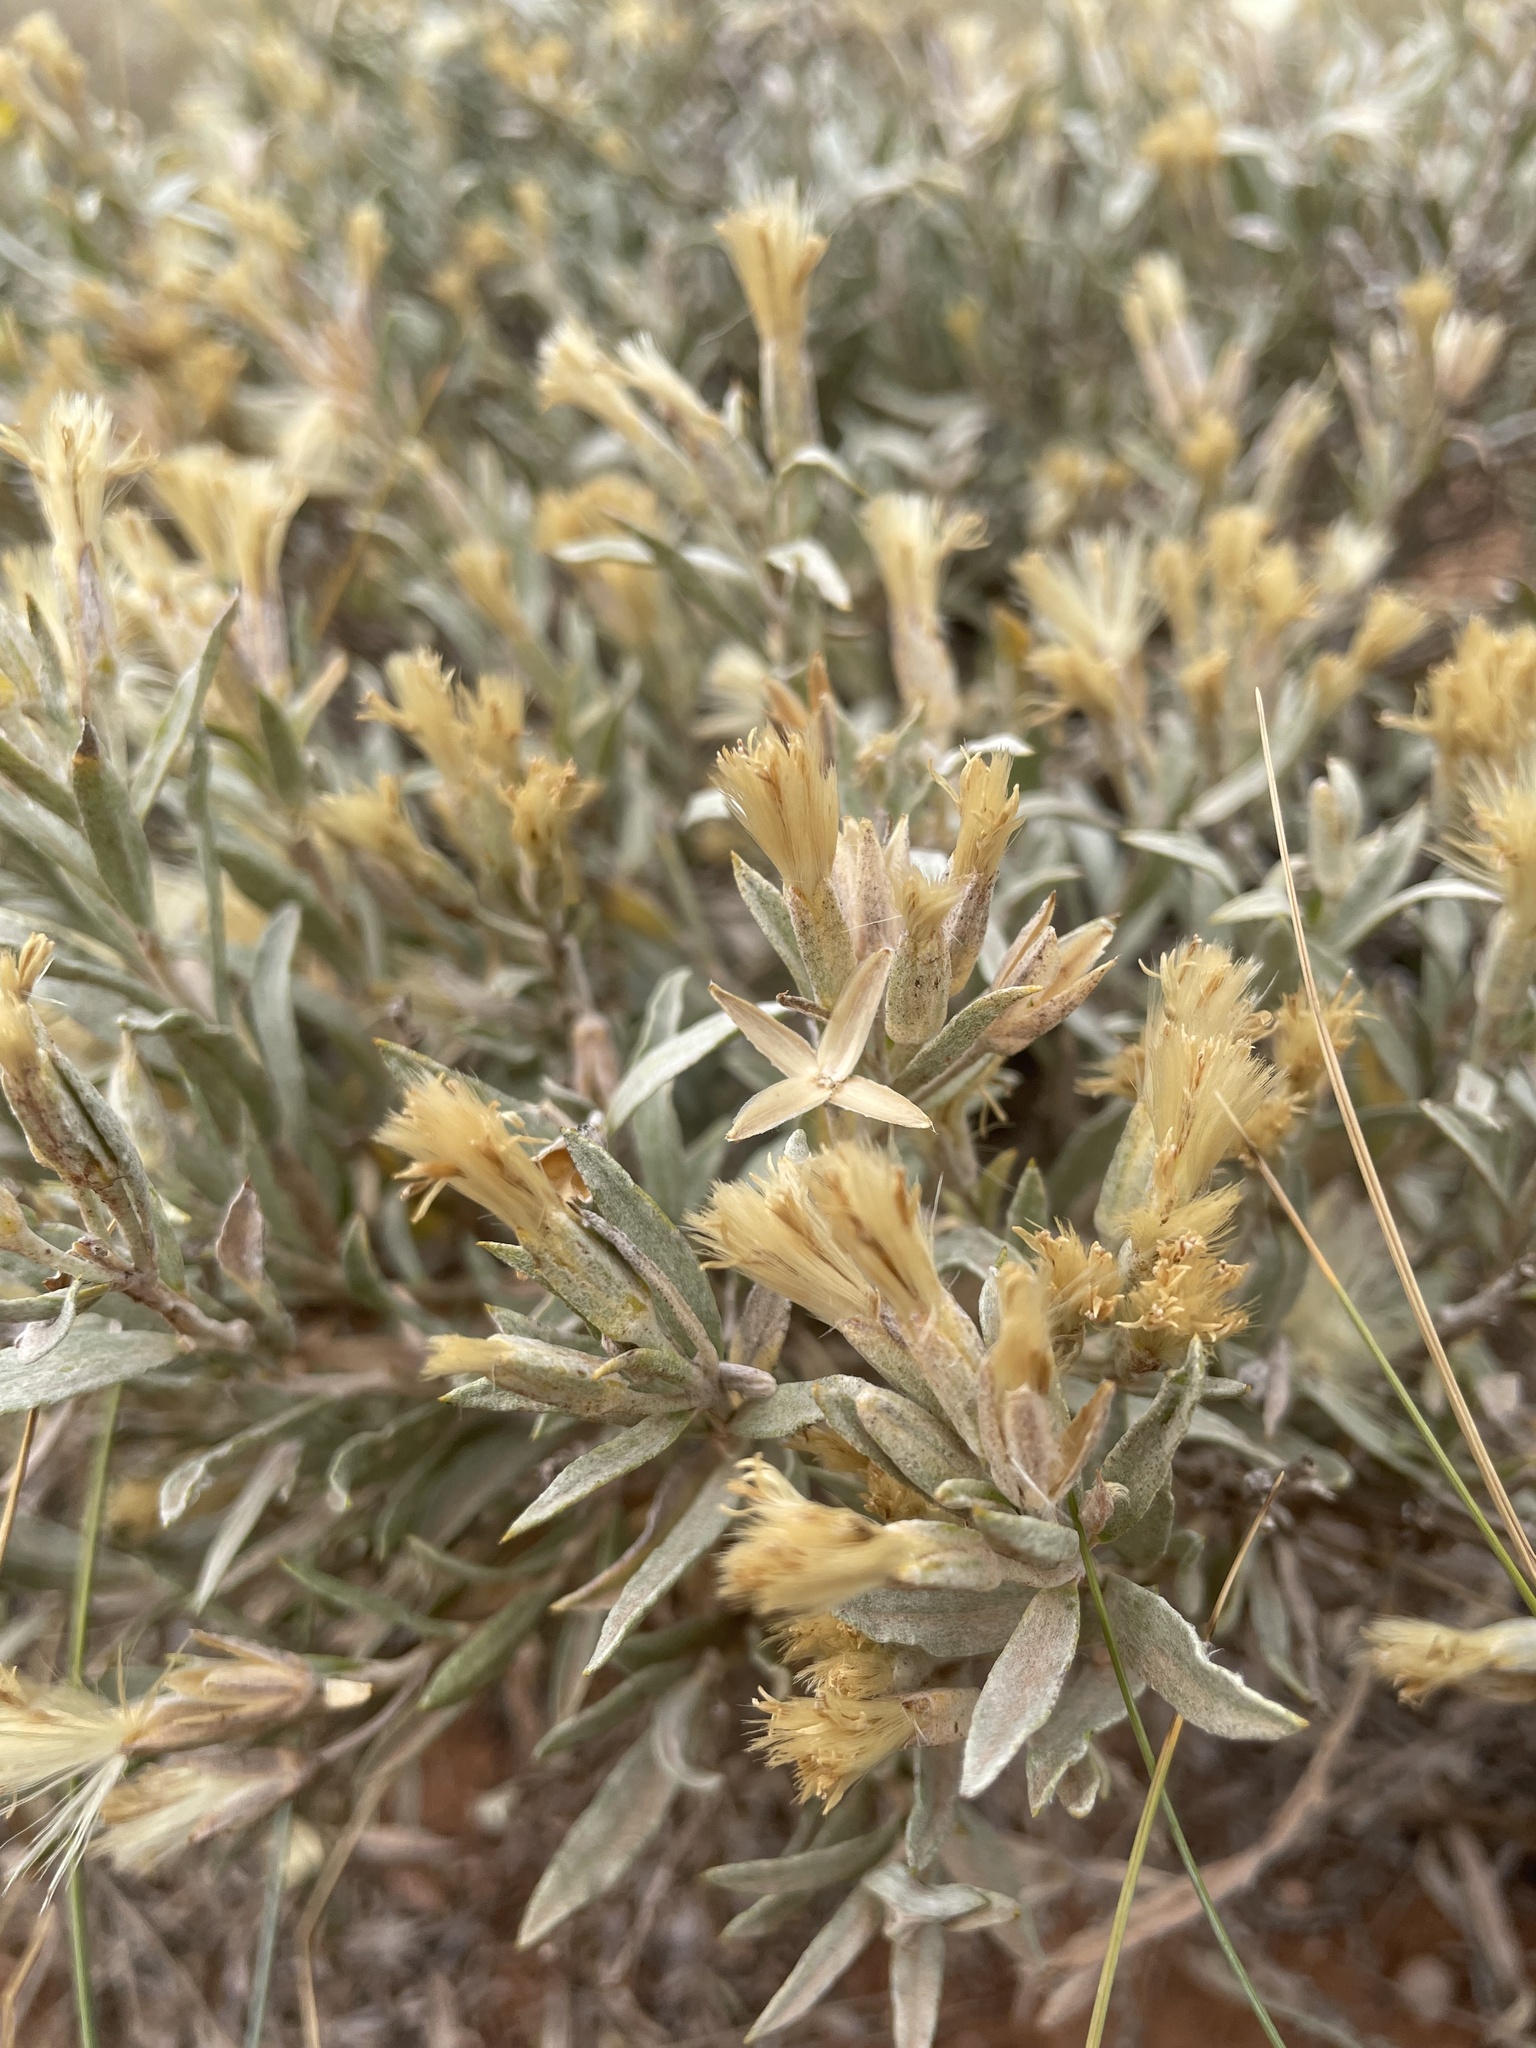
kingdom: Plantae
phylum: Tracheophyta
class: Magnoliopsida
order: Asterales
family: Asteraceae
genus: Tetradymia
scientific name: Tetradymia canescens
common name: Spineless horsebrush
